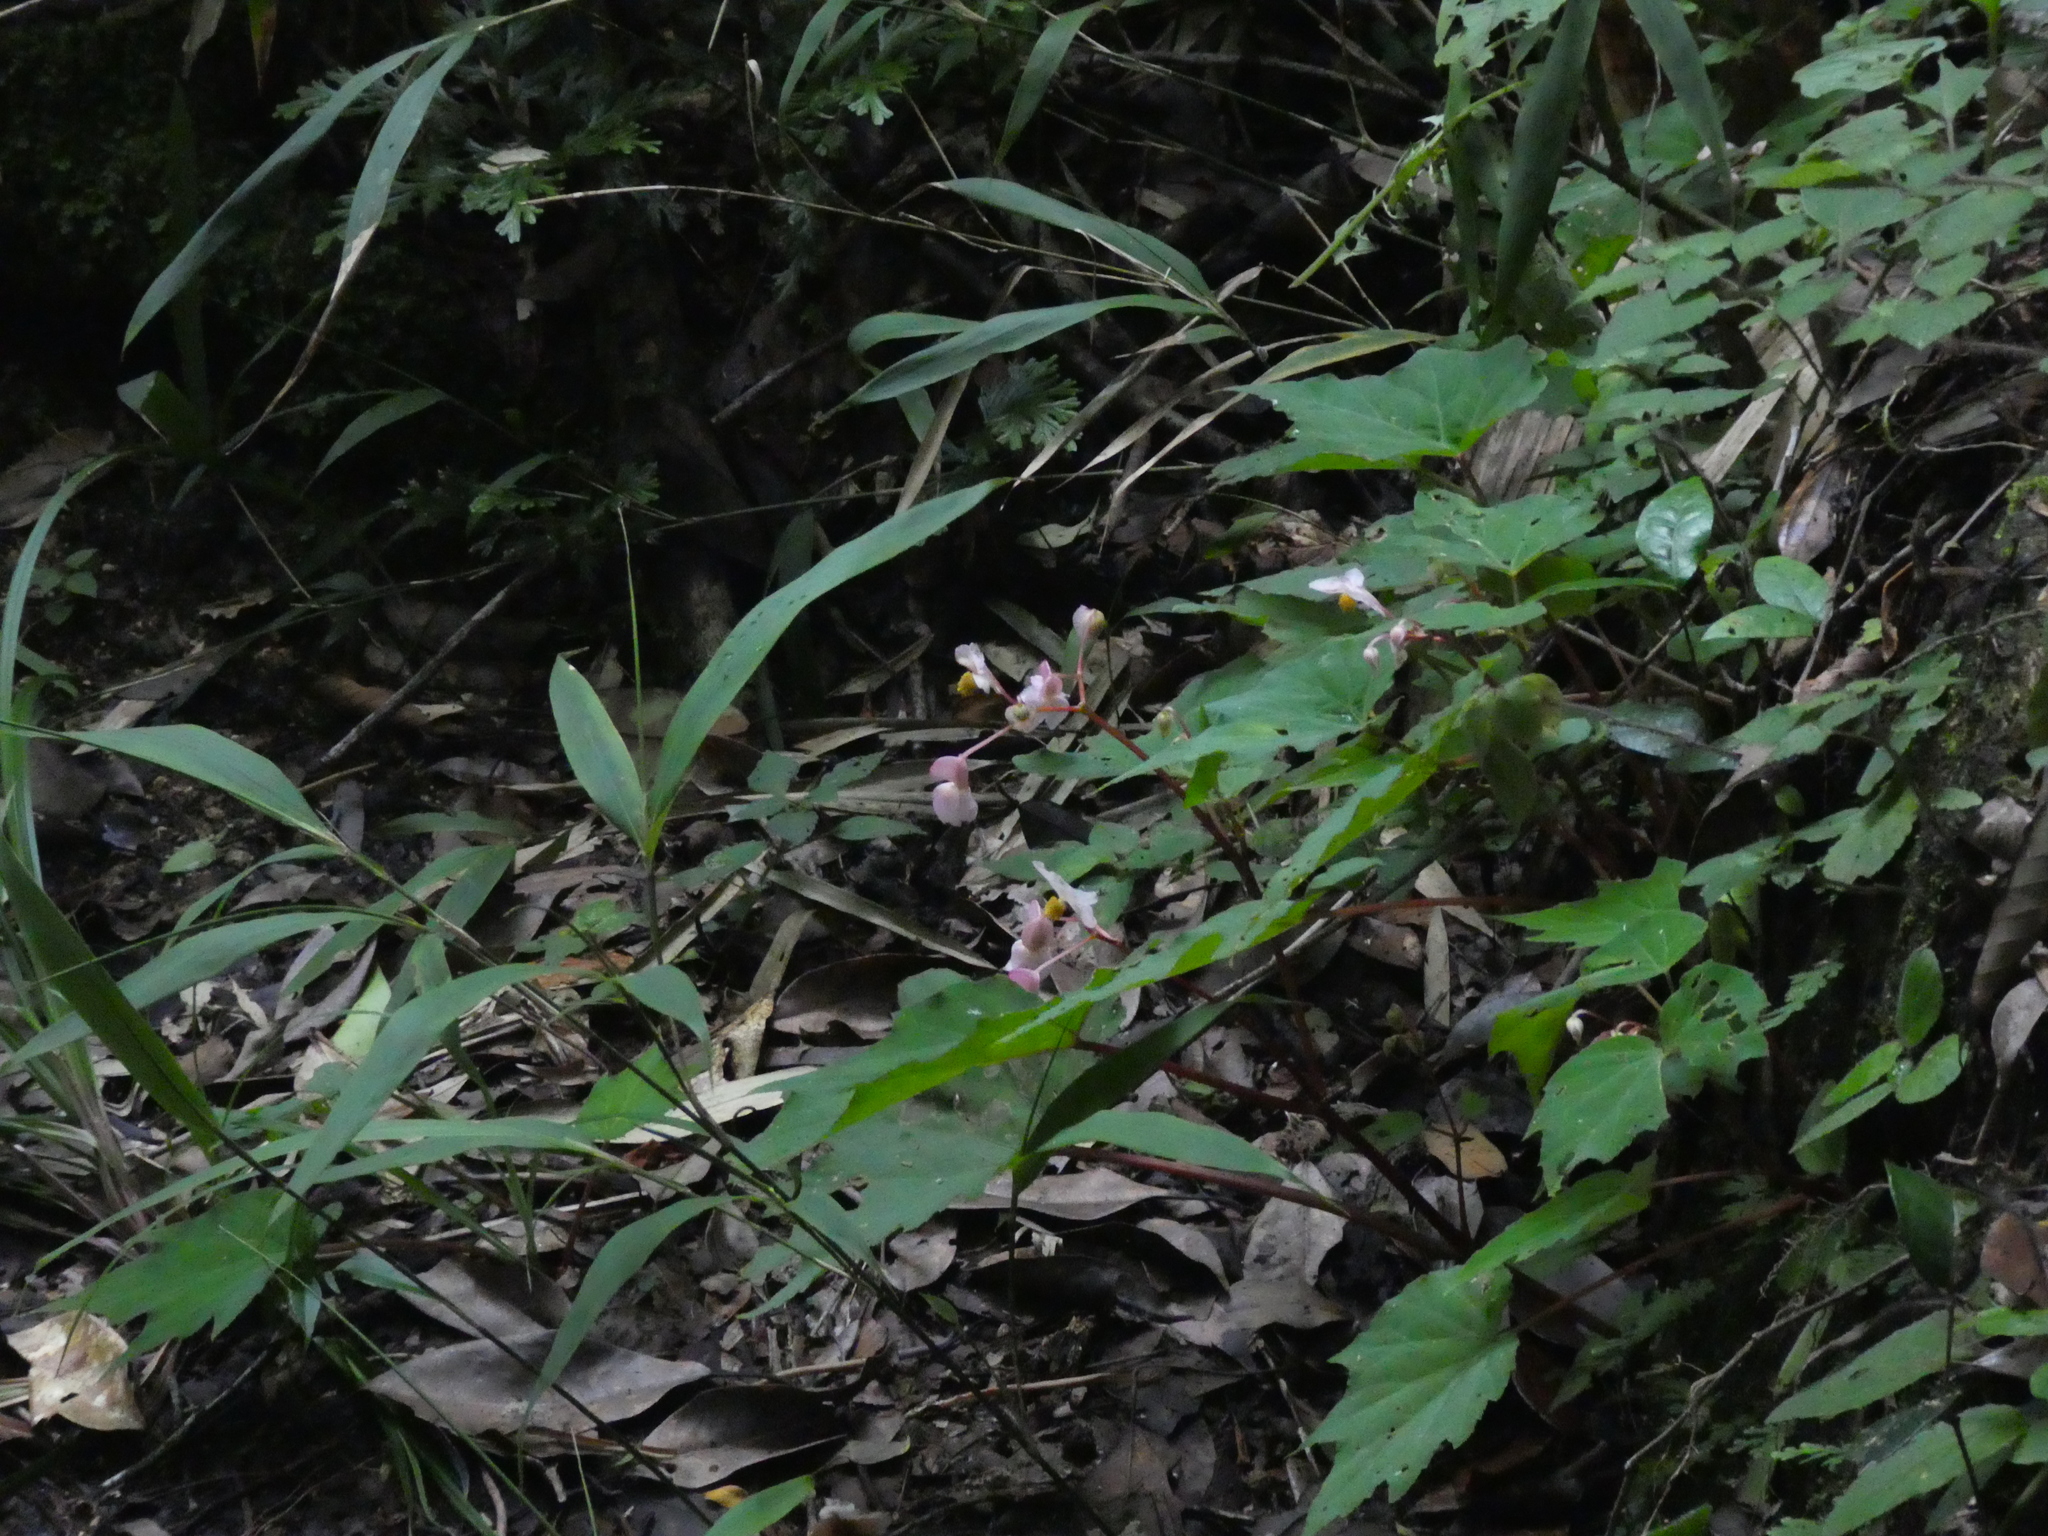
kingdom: Plantae
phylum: Tracheophyta
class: Magnoliopsida
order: Cucurbitales
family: Begoniaceae
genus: Begonia
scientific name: Begonia palmata
